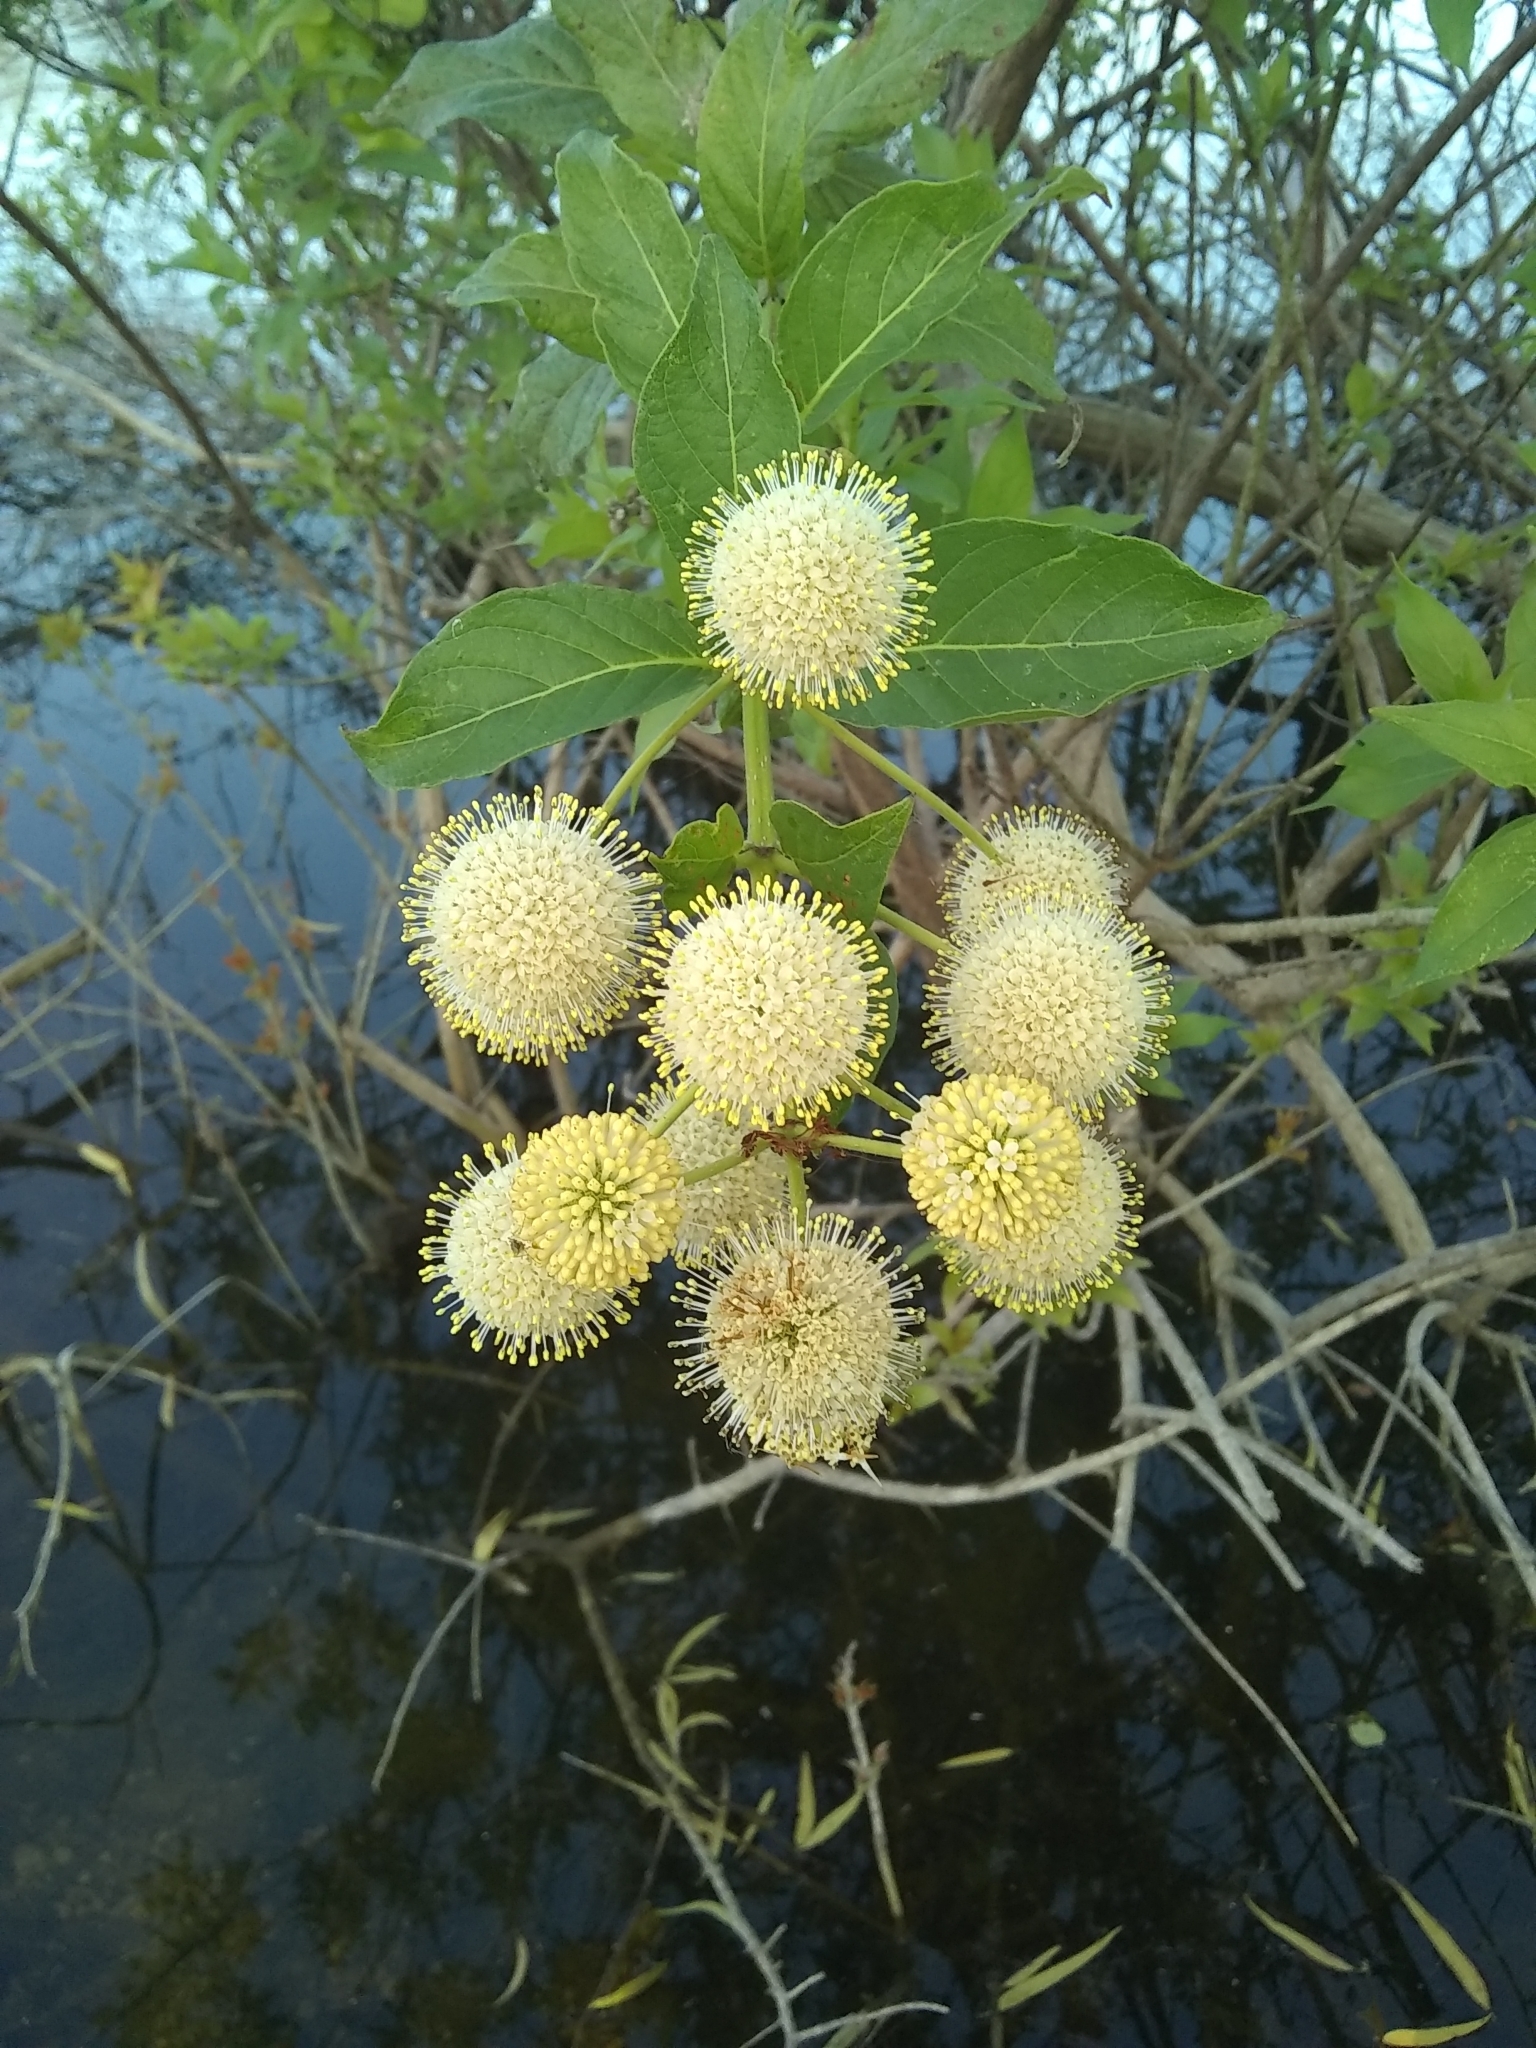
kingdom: Plantae
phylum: Tracheophyta
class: Magnoliopsida
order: Gentianales
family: Rubiaceae
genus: Cephalanthus
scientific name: Cephalanthus occidentalis
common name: Button-willow
